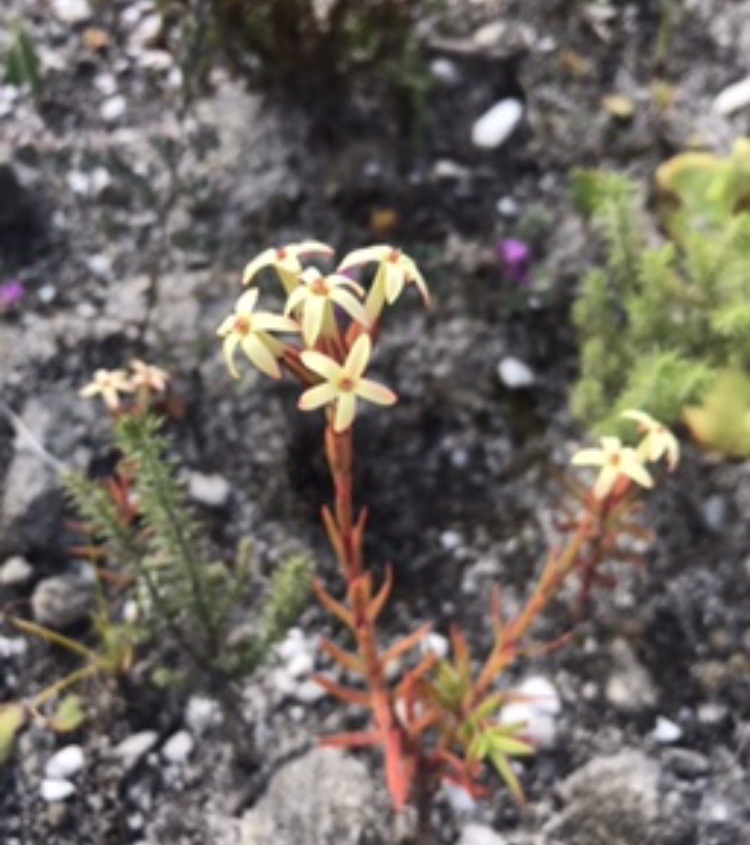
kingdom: Plantae
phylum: Tracheophyta
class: Magnoliopsida
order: Saxifragales
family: Crassulaceae
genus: Crassula
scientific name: Crassula fascicularis
